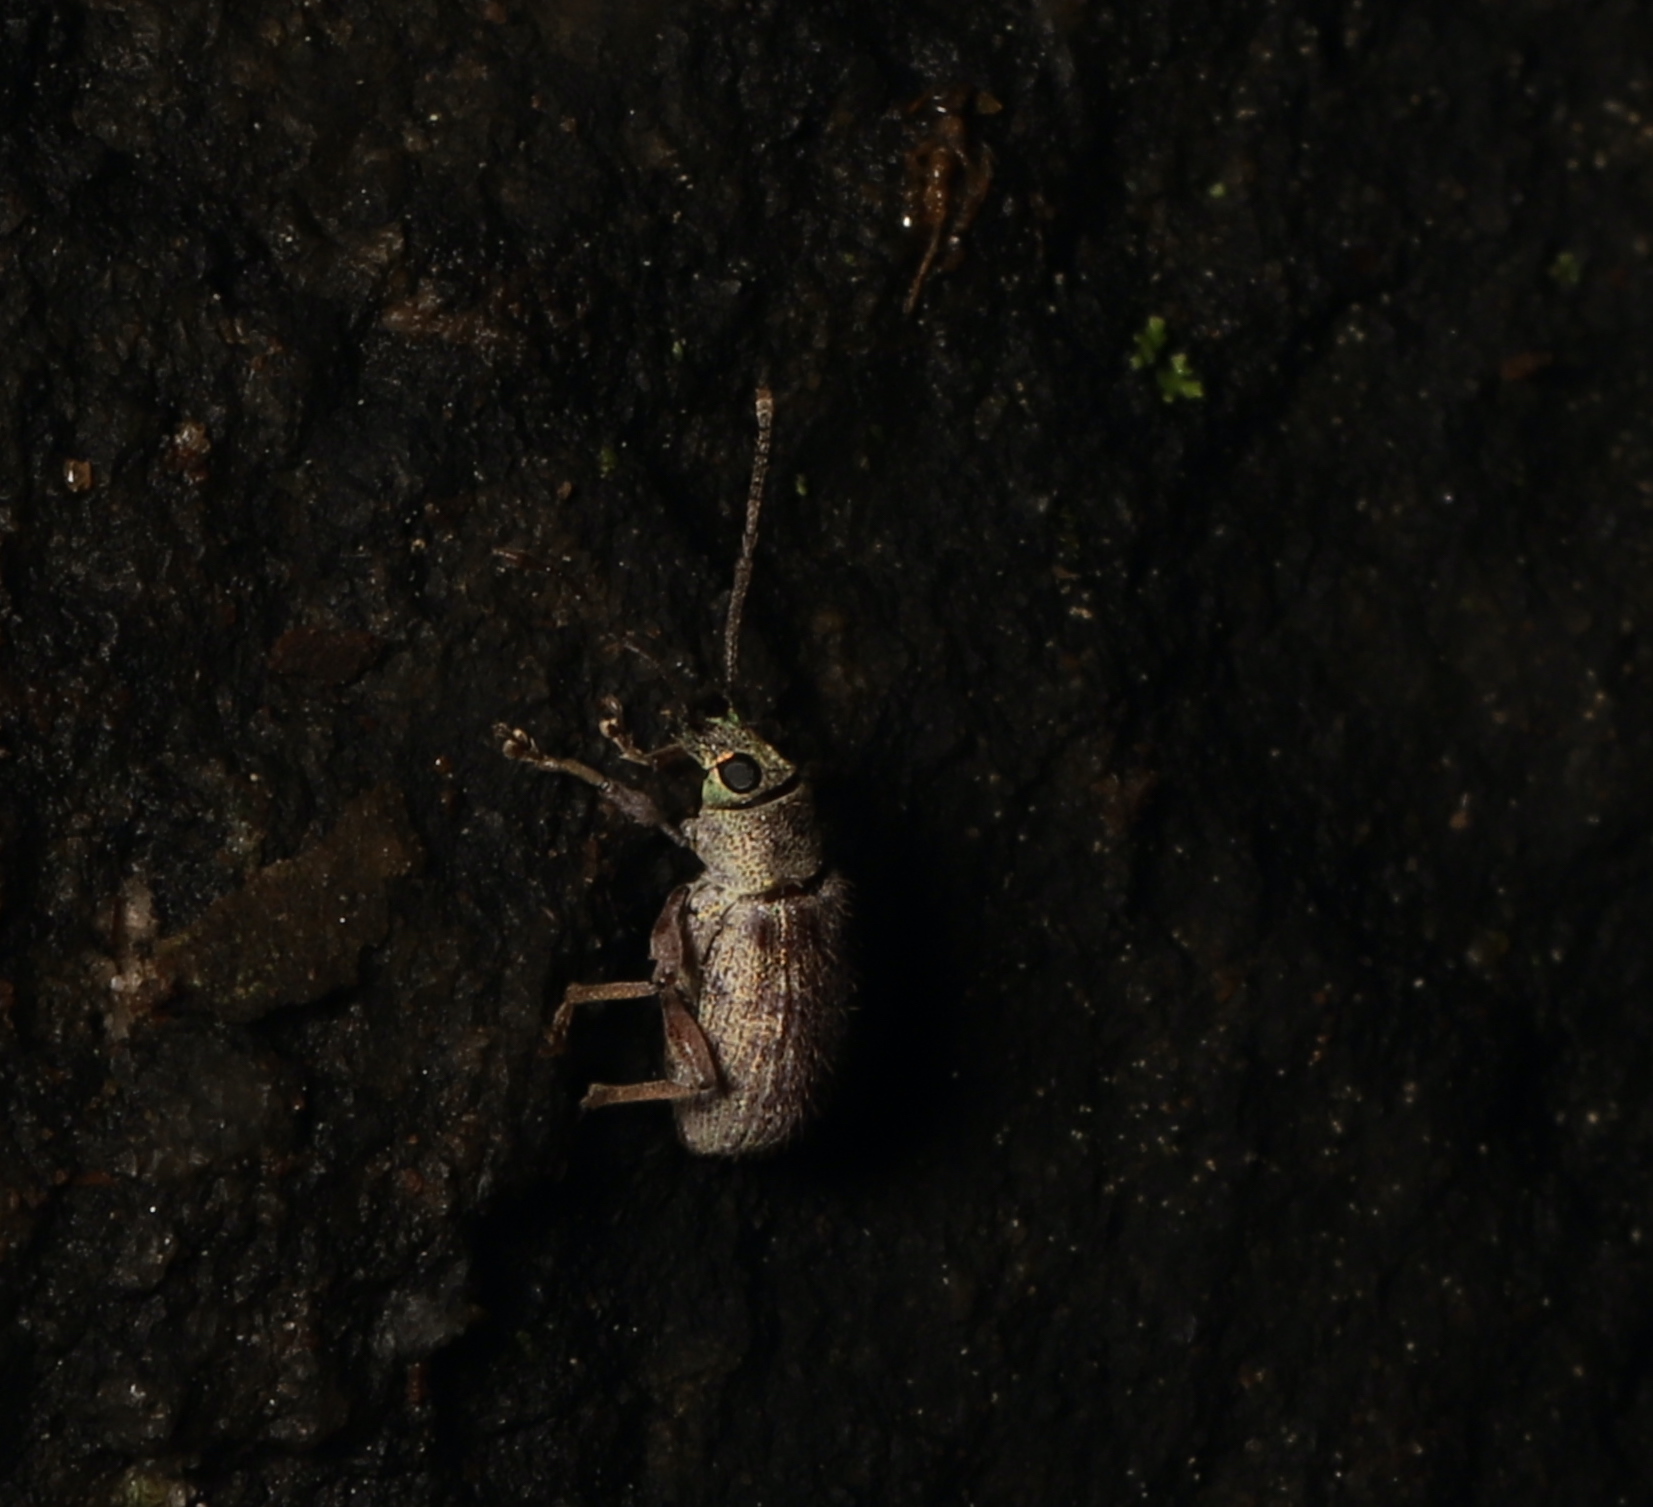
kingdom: Animalia
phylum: Arthropoda
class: Insecta
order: Coleoptera
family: Curculionidae
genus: Cyrtepistomus
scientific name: Cyrtepistomus castaneus
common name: Weevil
